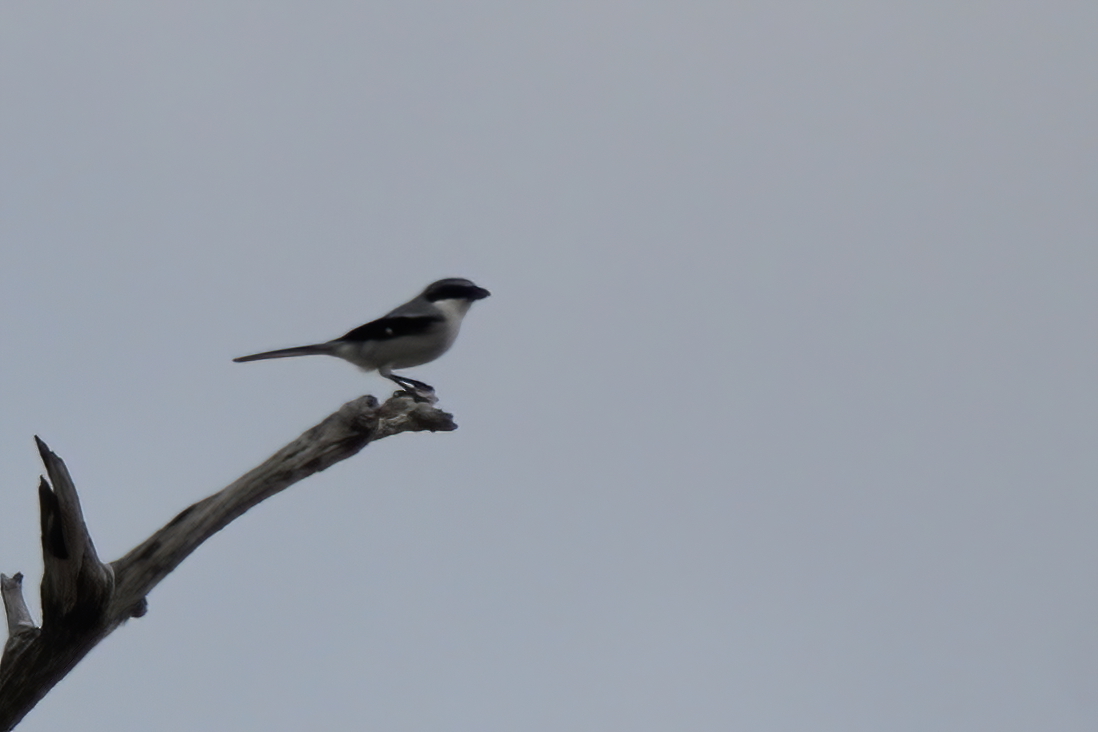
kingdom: Animalia
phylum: Chordata
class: Aves
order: Passeriformes
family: Laniidae
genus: Lanius
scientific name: Lanius ludovicianus
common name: Loggerhead shrike
